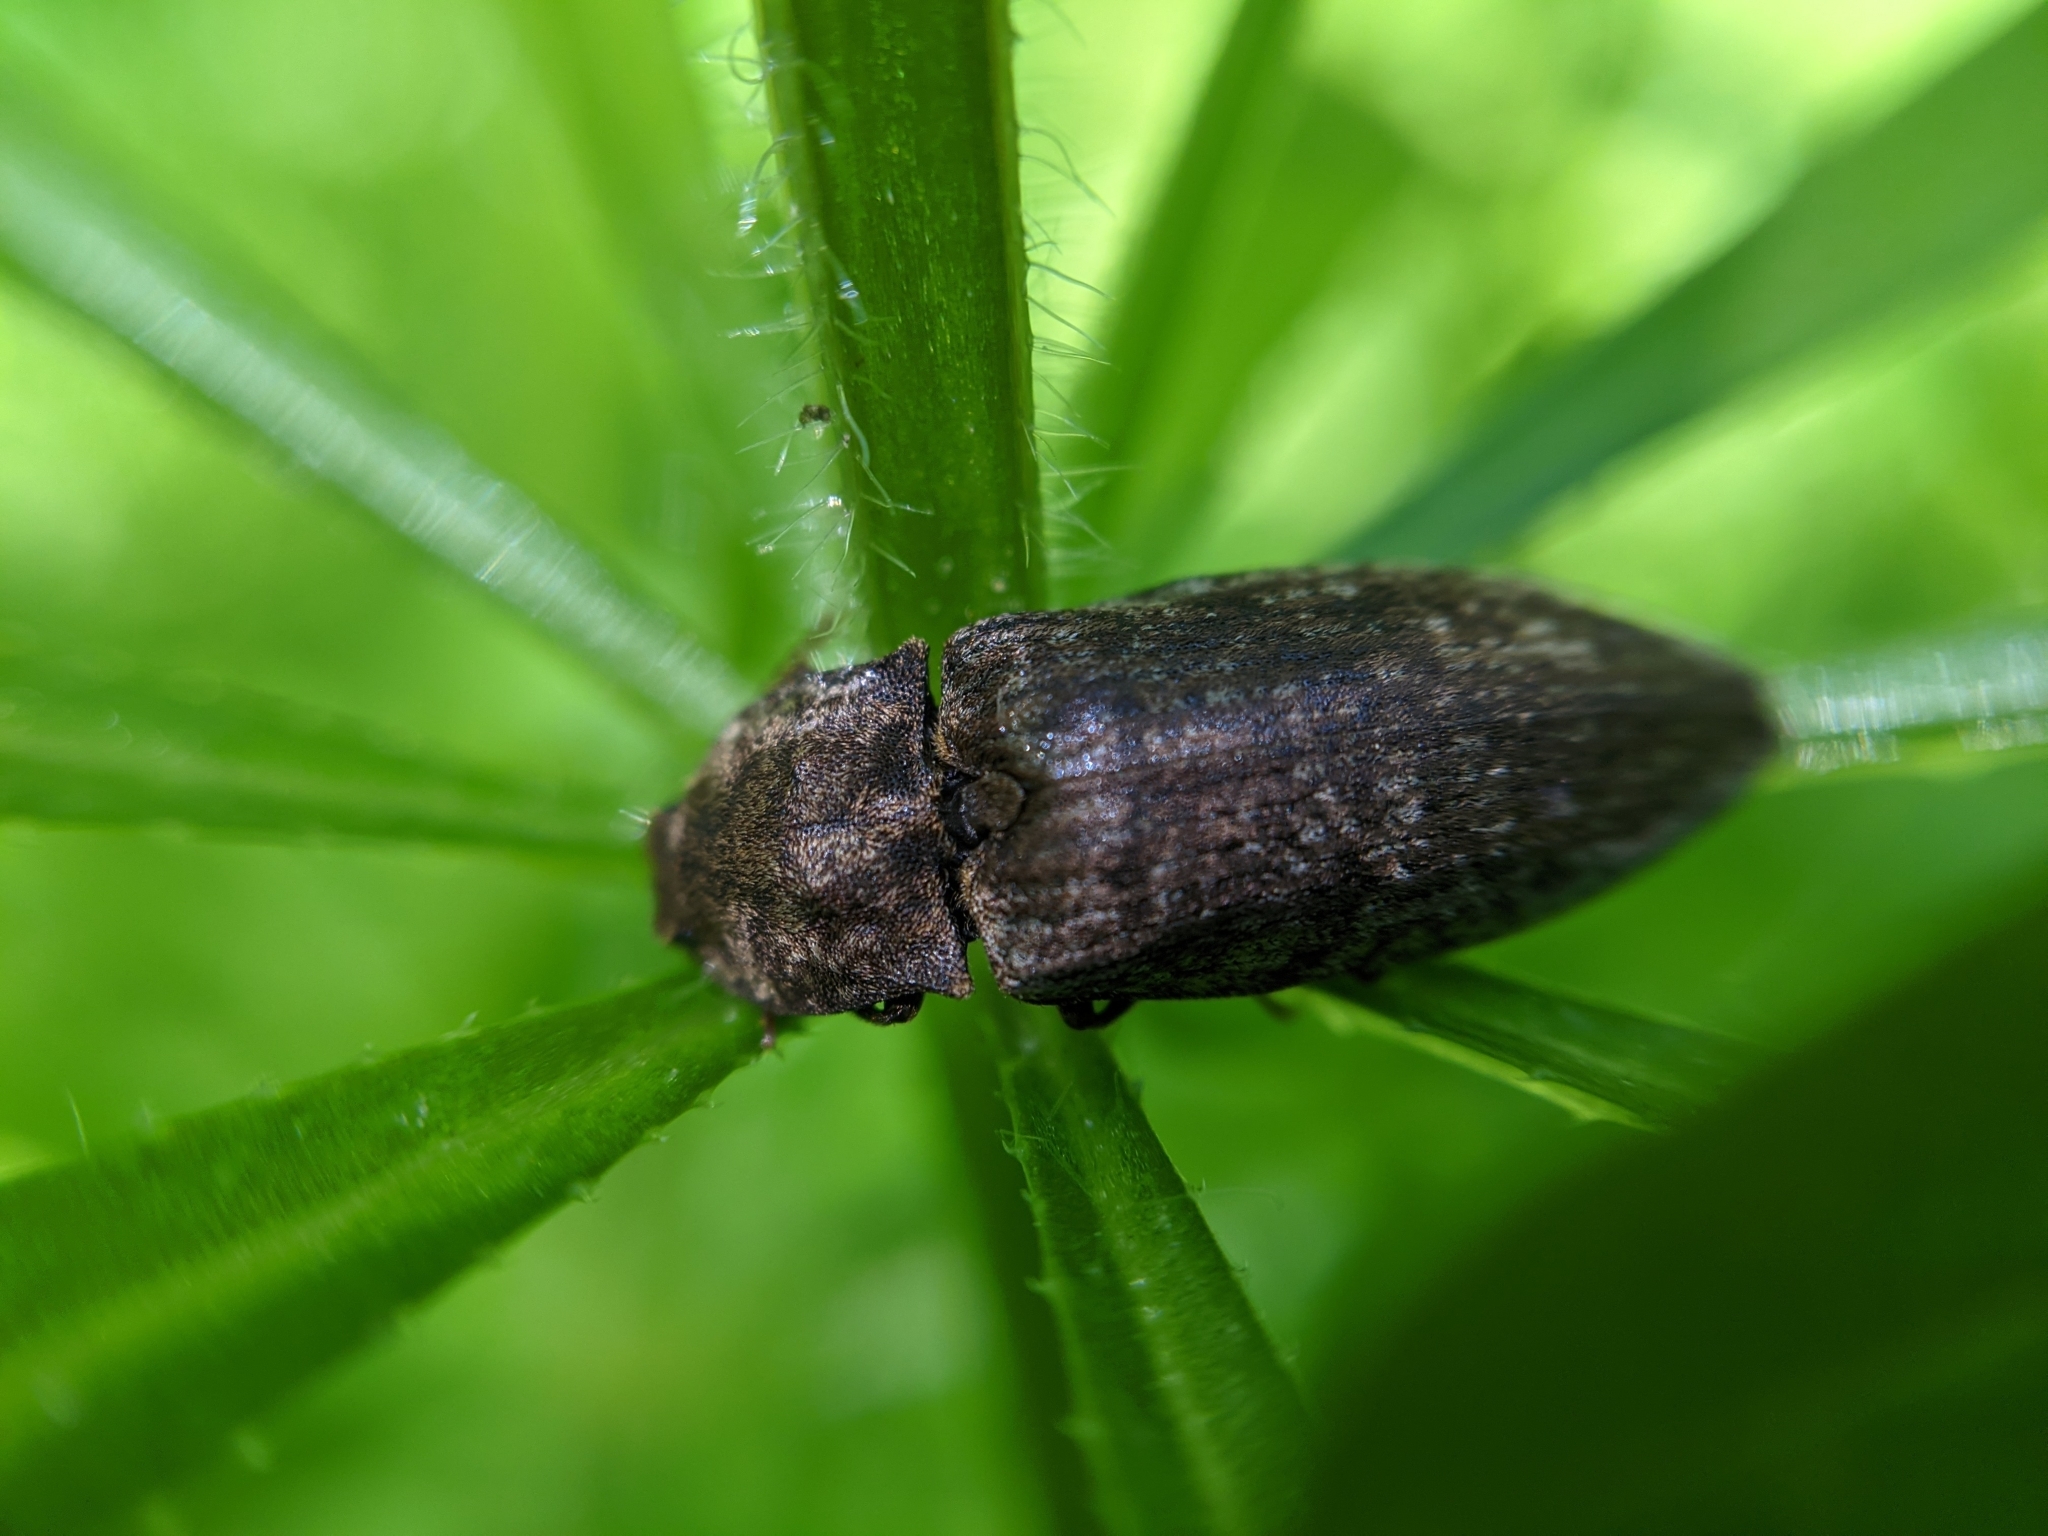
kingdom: Animalia
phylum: Arthropoda
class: Insecta
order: Coleoptera
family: Elateridae
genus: Agrypnus
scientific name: Agrypnus murinus
